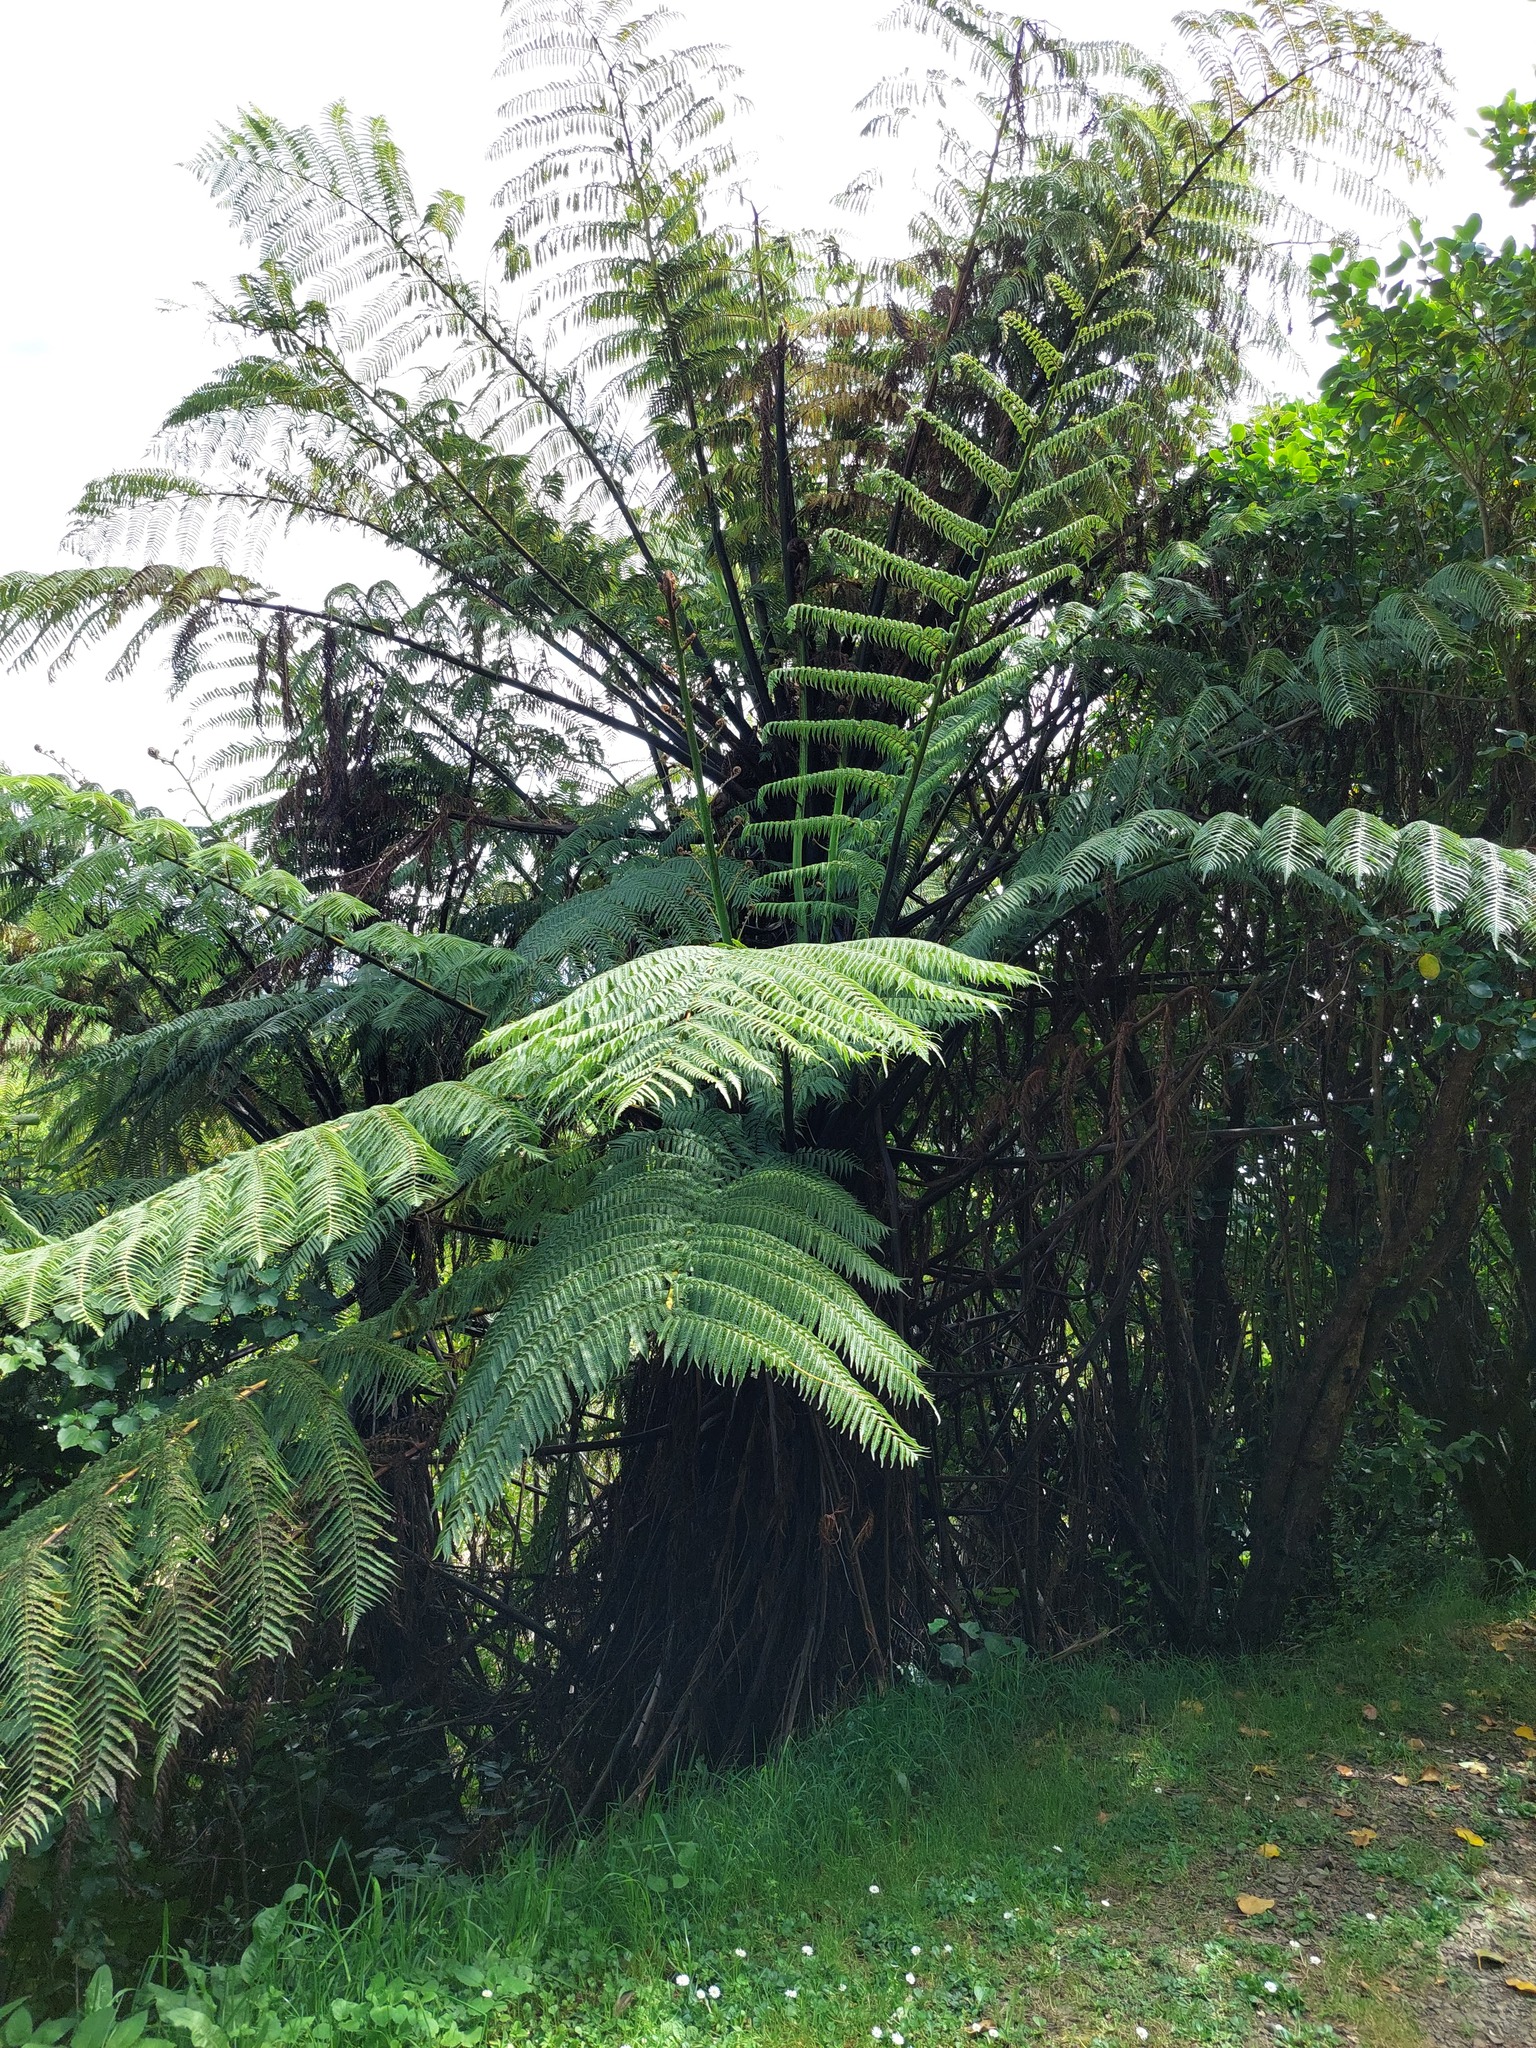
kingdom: Plantae
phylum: Tracheophyta
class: Polypodiopsida
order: Cyatheales
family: Cyatheaceae
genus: Sphaeropteris
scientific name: Sphaeropteris medullaris
